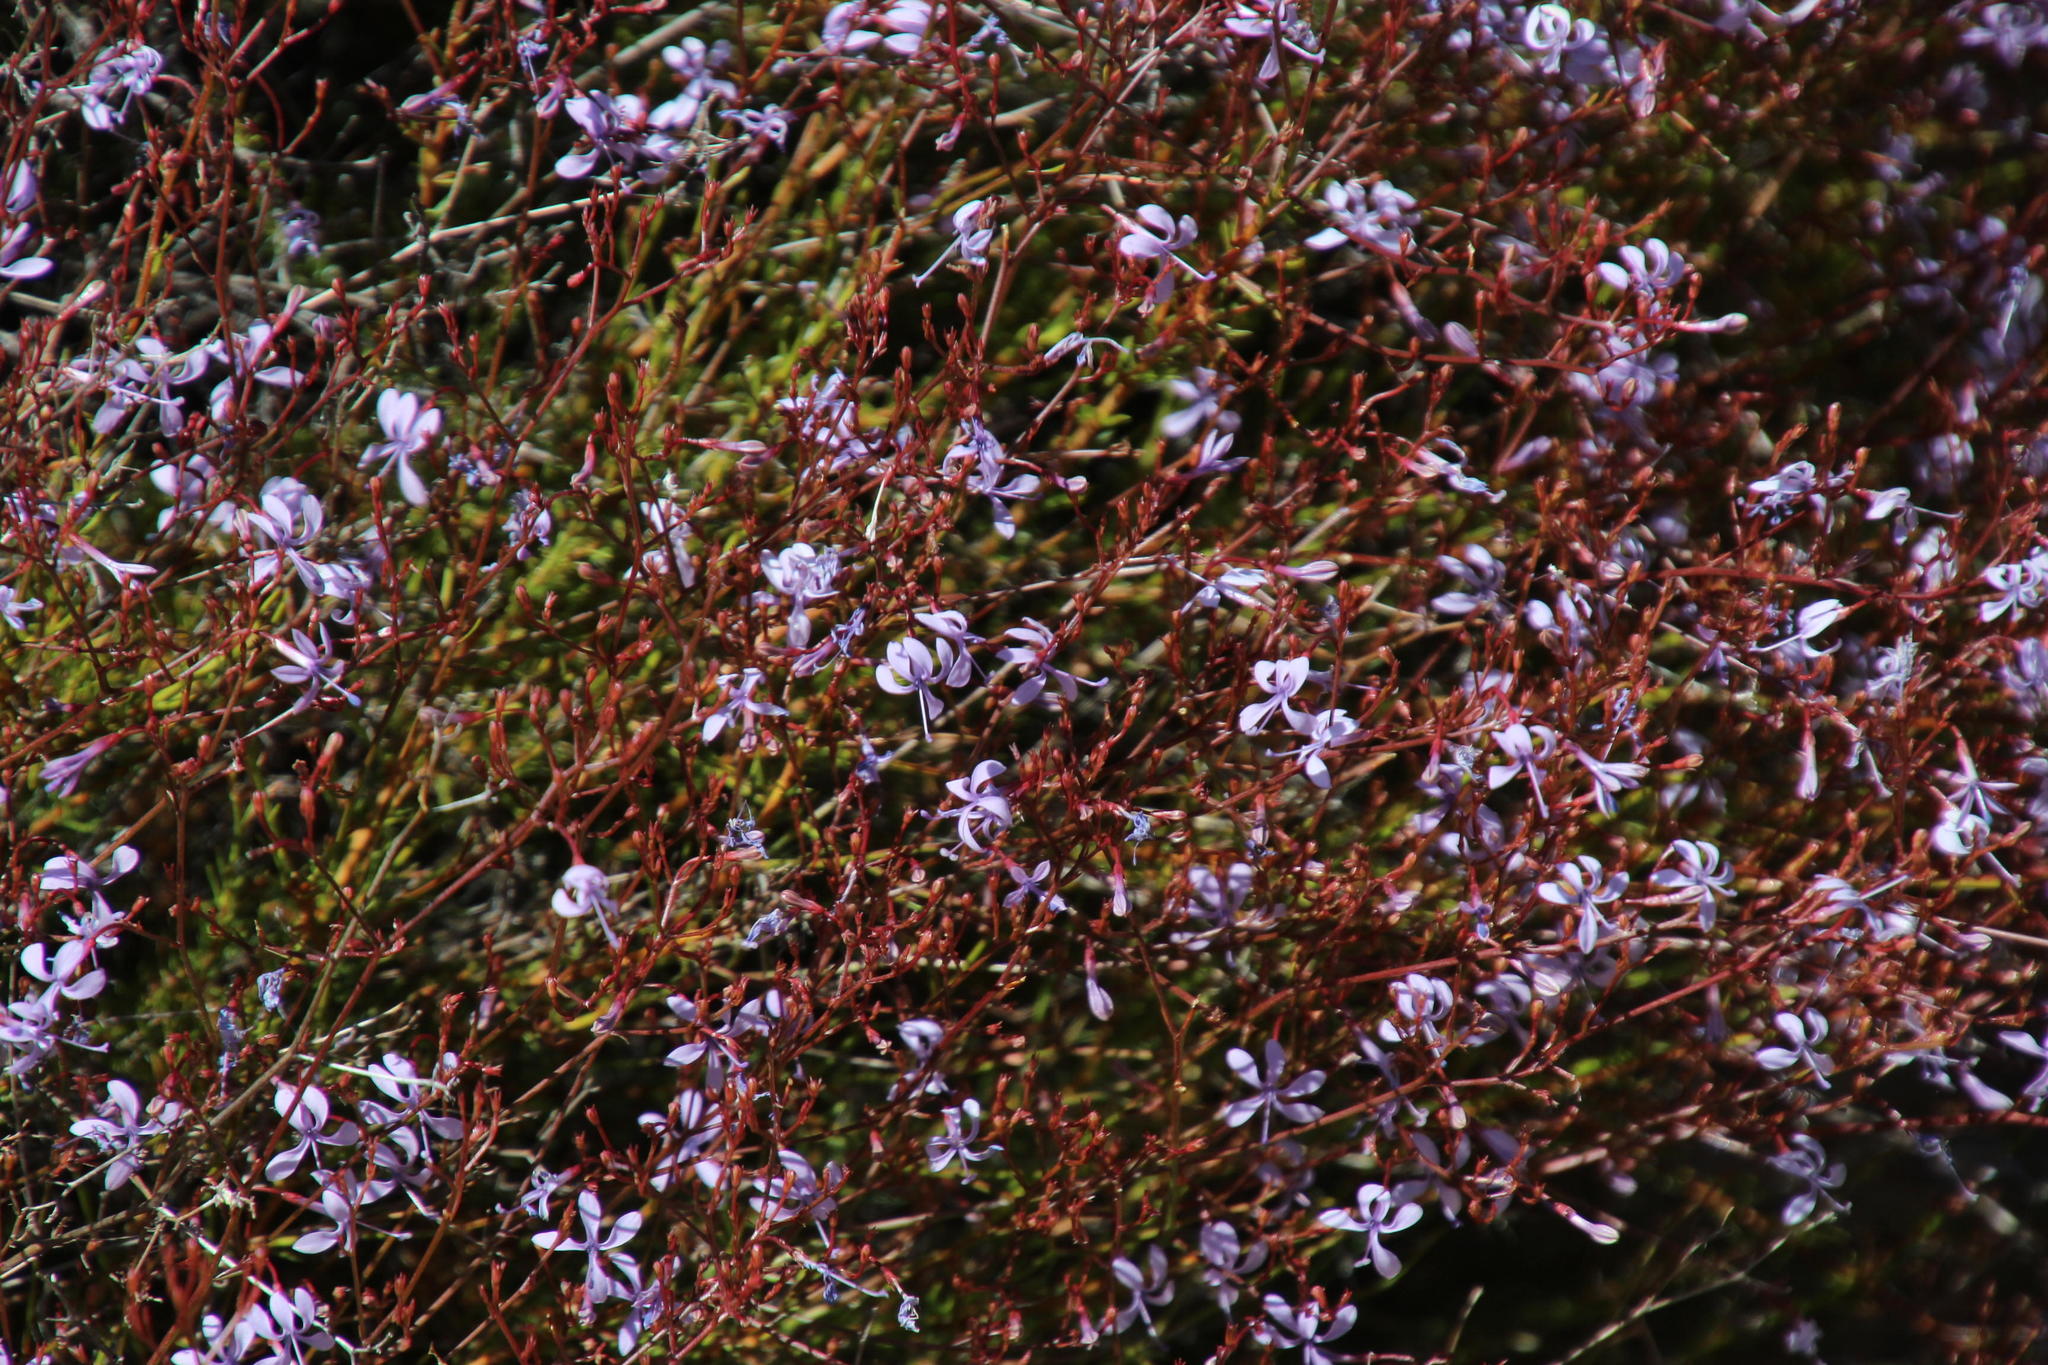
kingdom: Plantae
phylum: Tracheophyta
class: Magnoliopsida
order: Asterales
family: Campanulaceae
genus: Prismatocarpus
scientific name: Prismatocarpus diffusus
